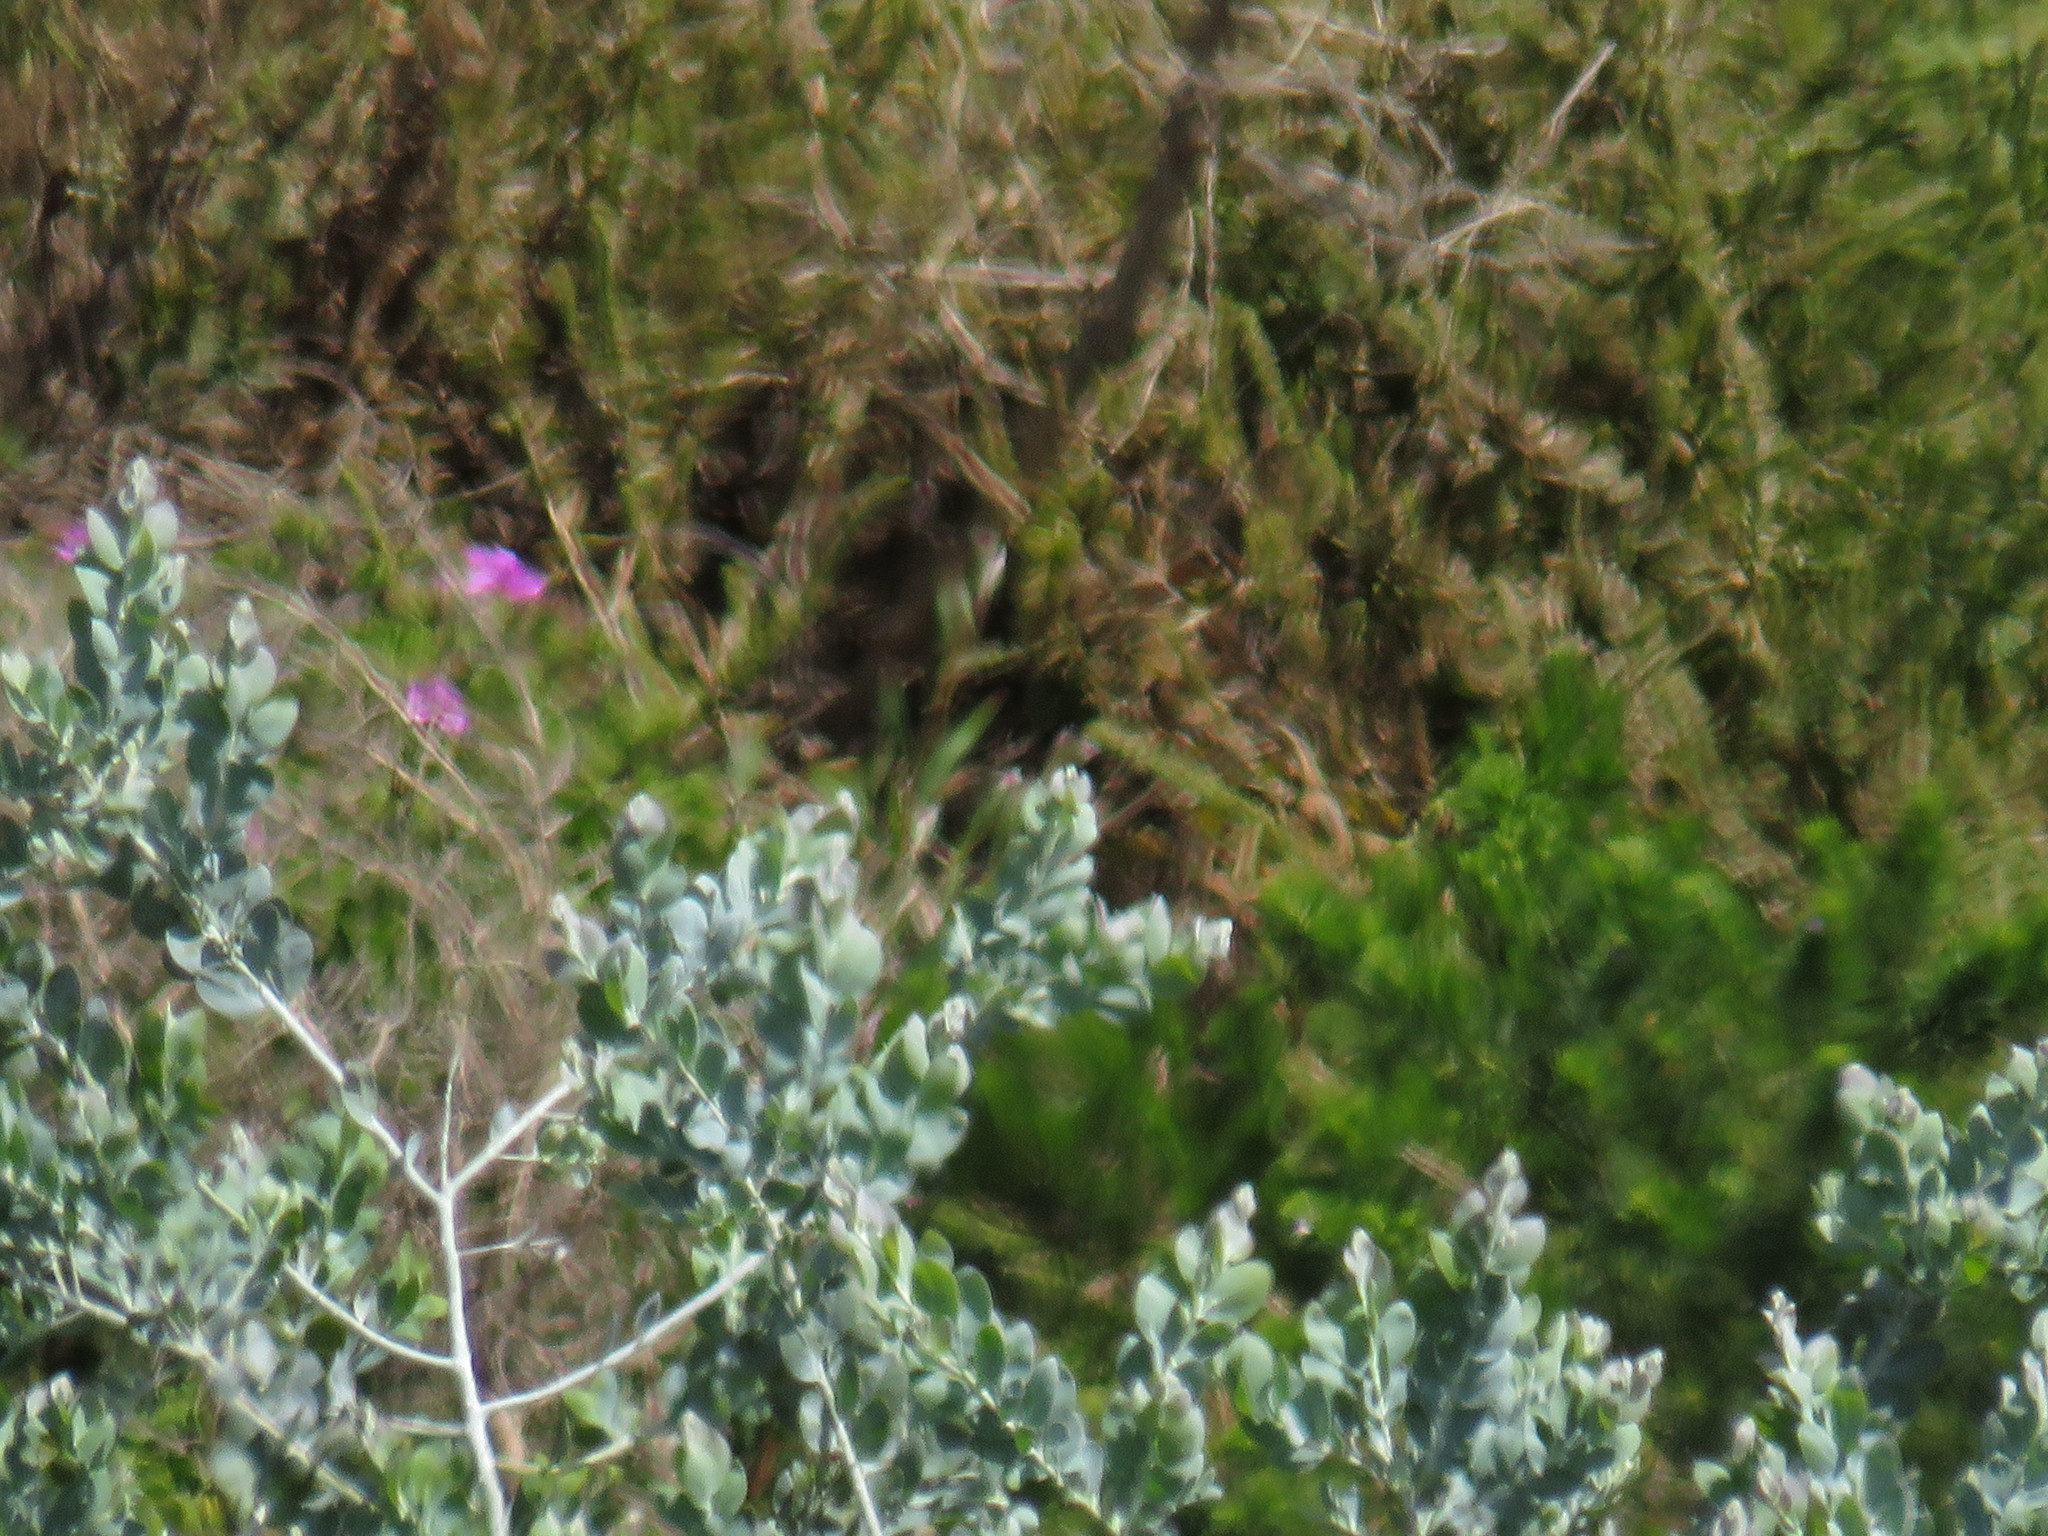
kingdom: Plantae
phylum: Tracheophyta
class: Magnoliopsida
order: Fabales
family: Fabaceae
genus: Acacia
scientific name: Acacia podalyriifolia
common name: Pearl wattle
